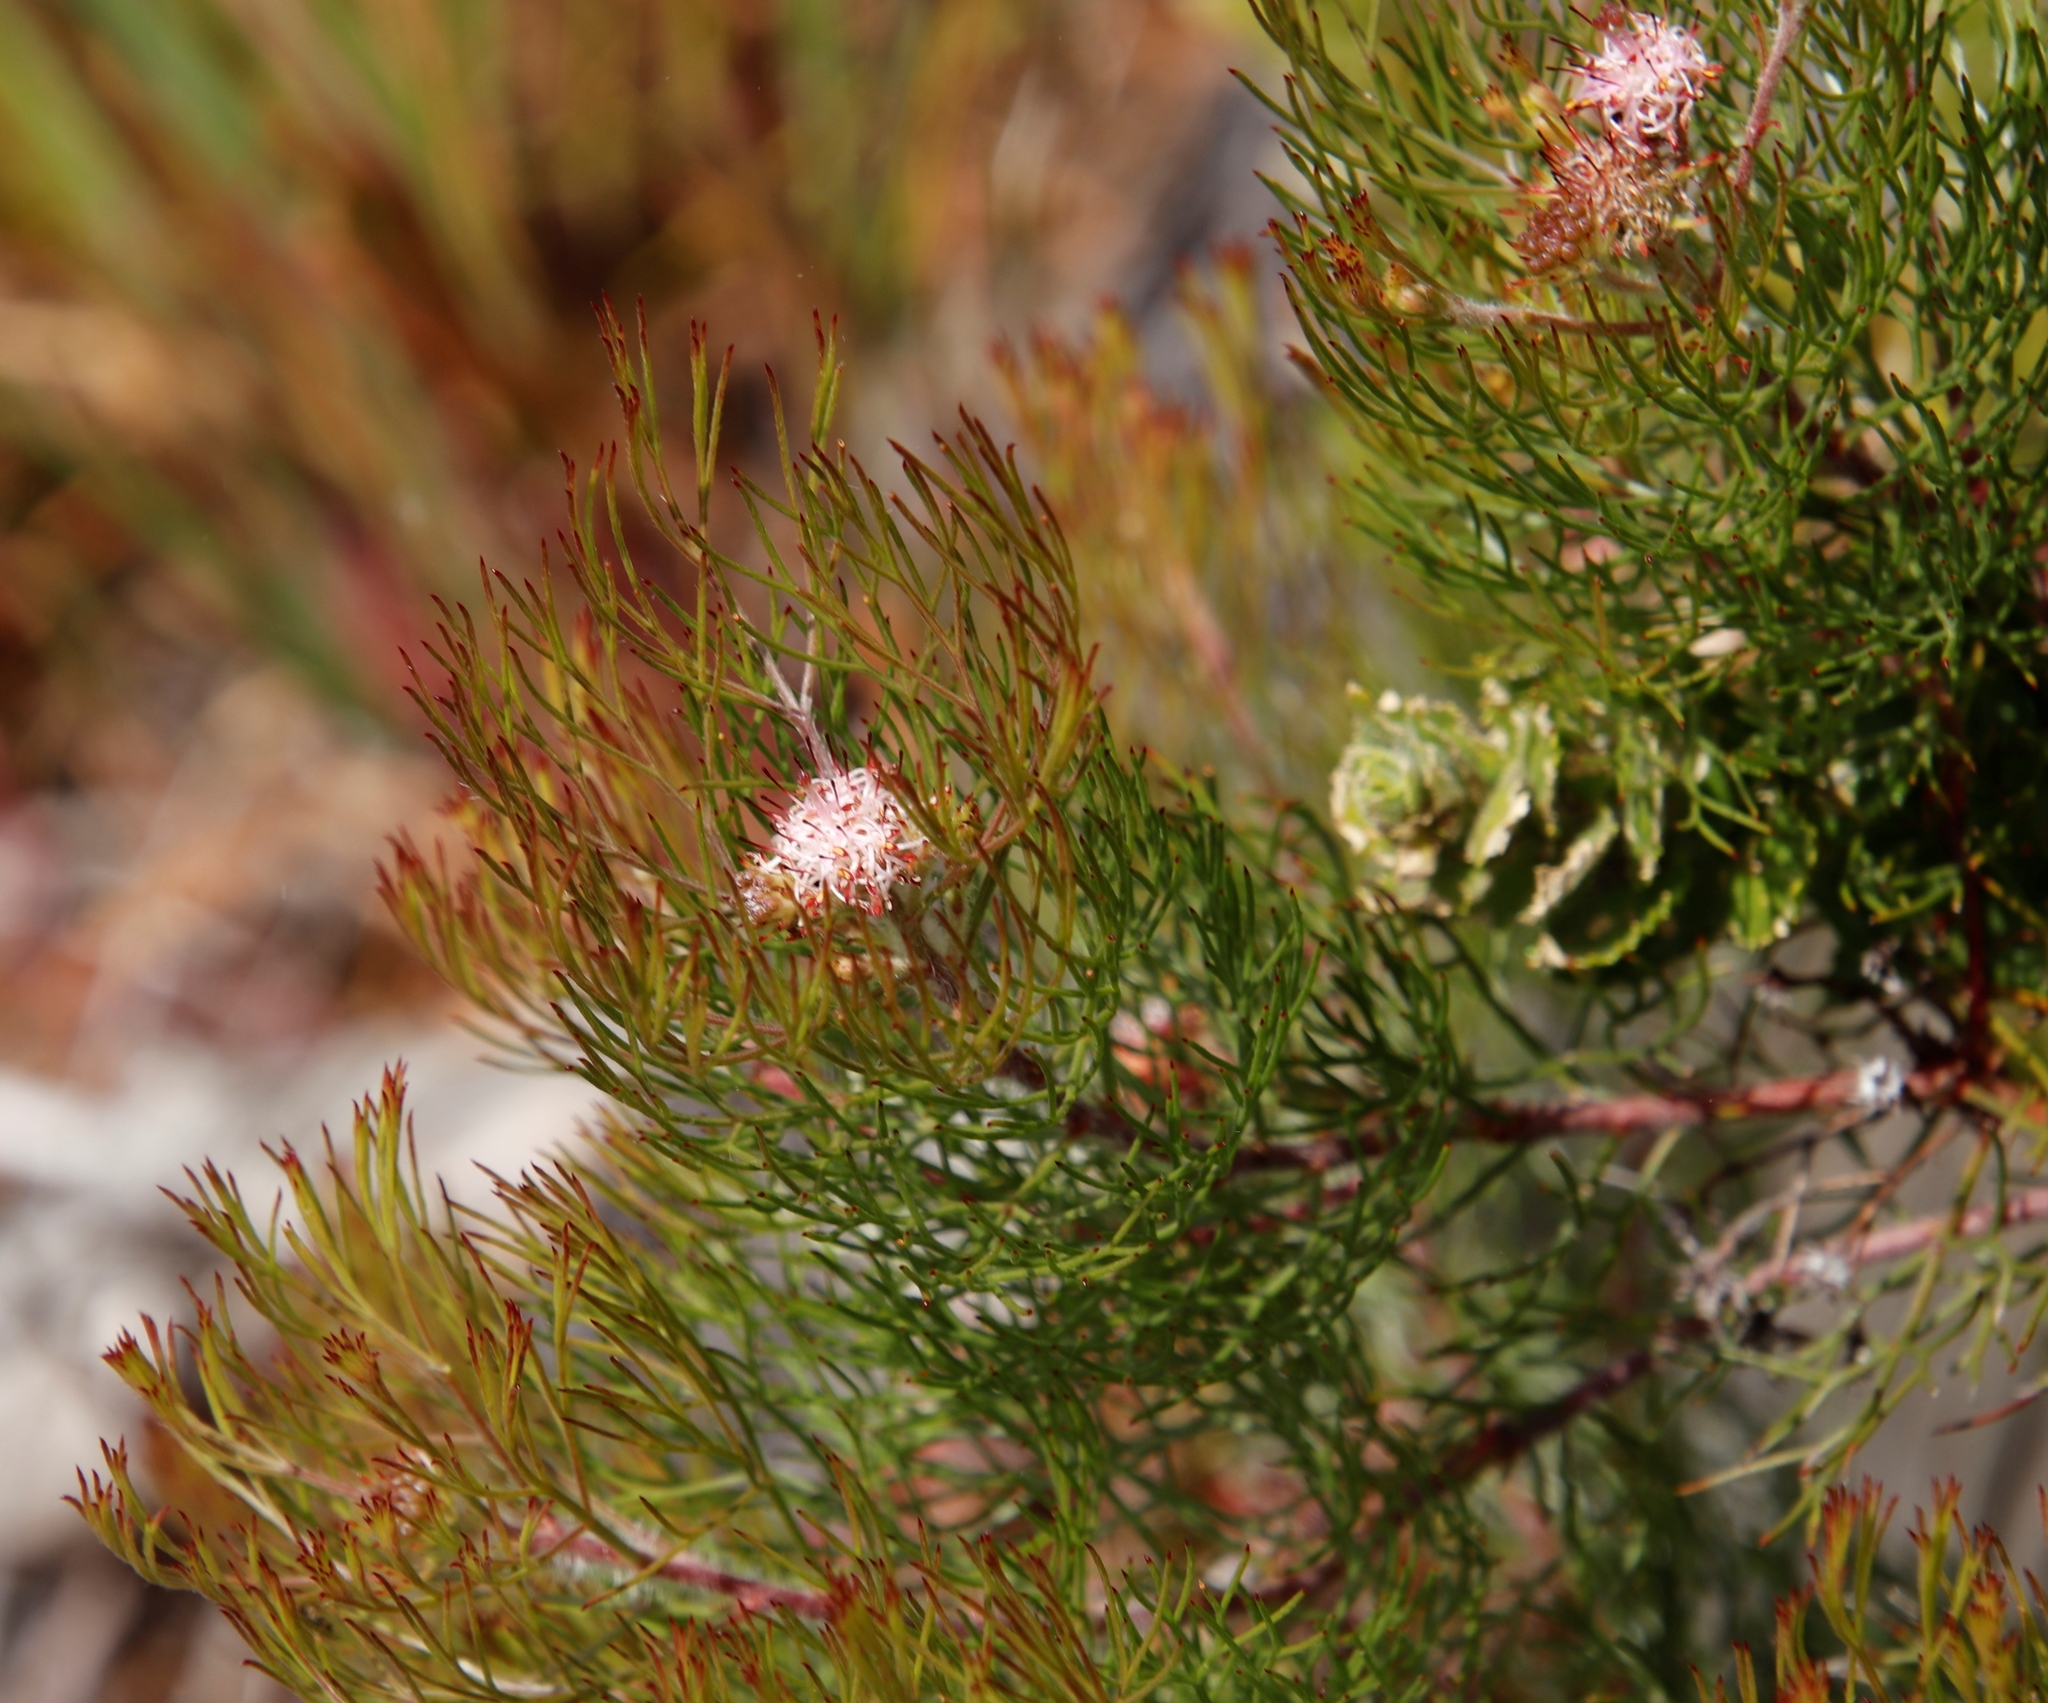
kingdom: Plantae
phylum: Tracheophyta
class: Magnoliopsida
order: Proteales
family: Proteaceae
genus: Serruria
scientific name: Serruria fasciflora
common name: Common pin spiderhead
